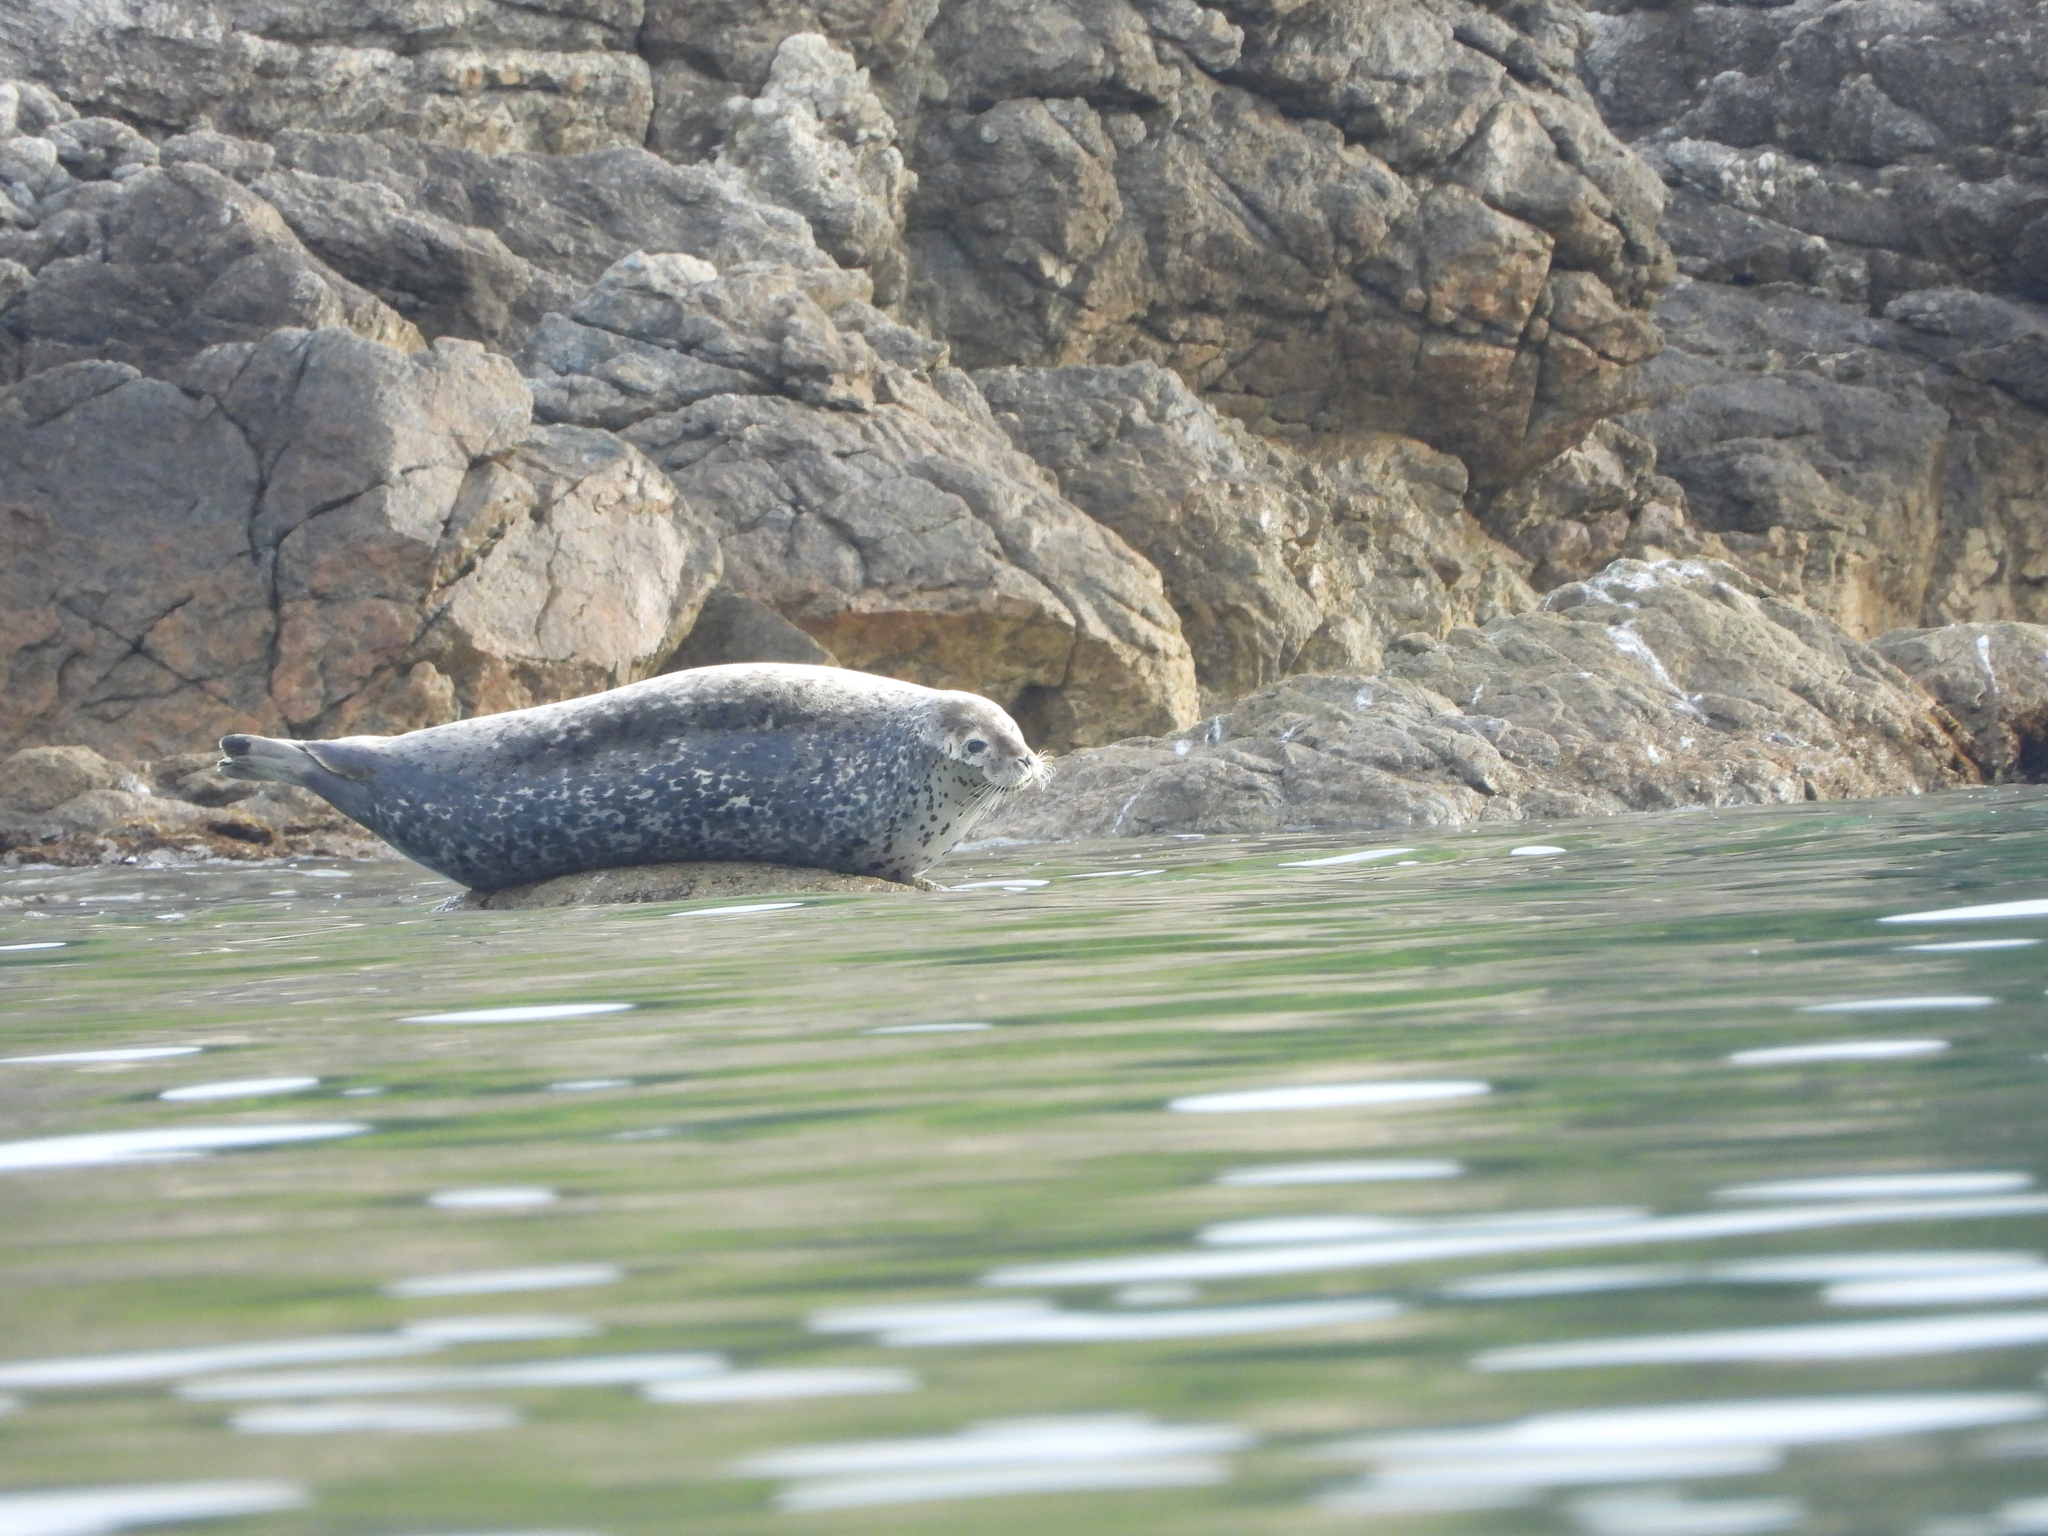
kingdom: Animalia
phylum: Chordata
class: Mammalia
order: Carnivora
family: Phocidae
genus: Phoca
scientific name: Phoca largha
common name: Spotted seal
